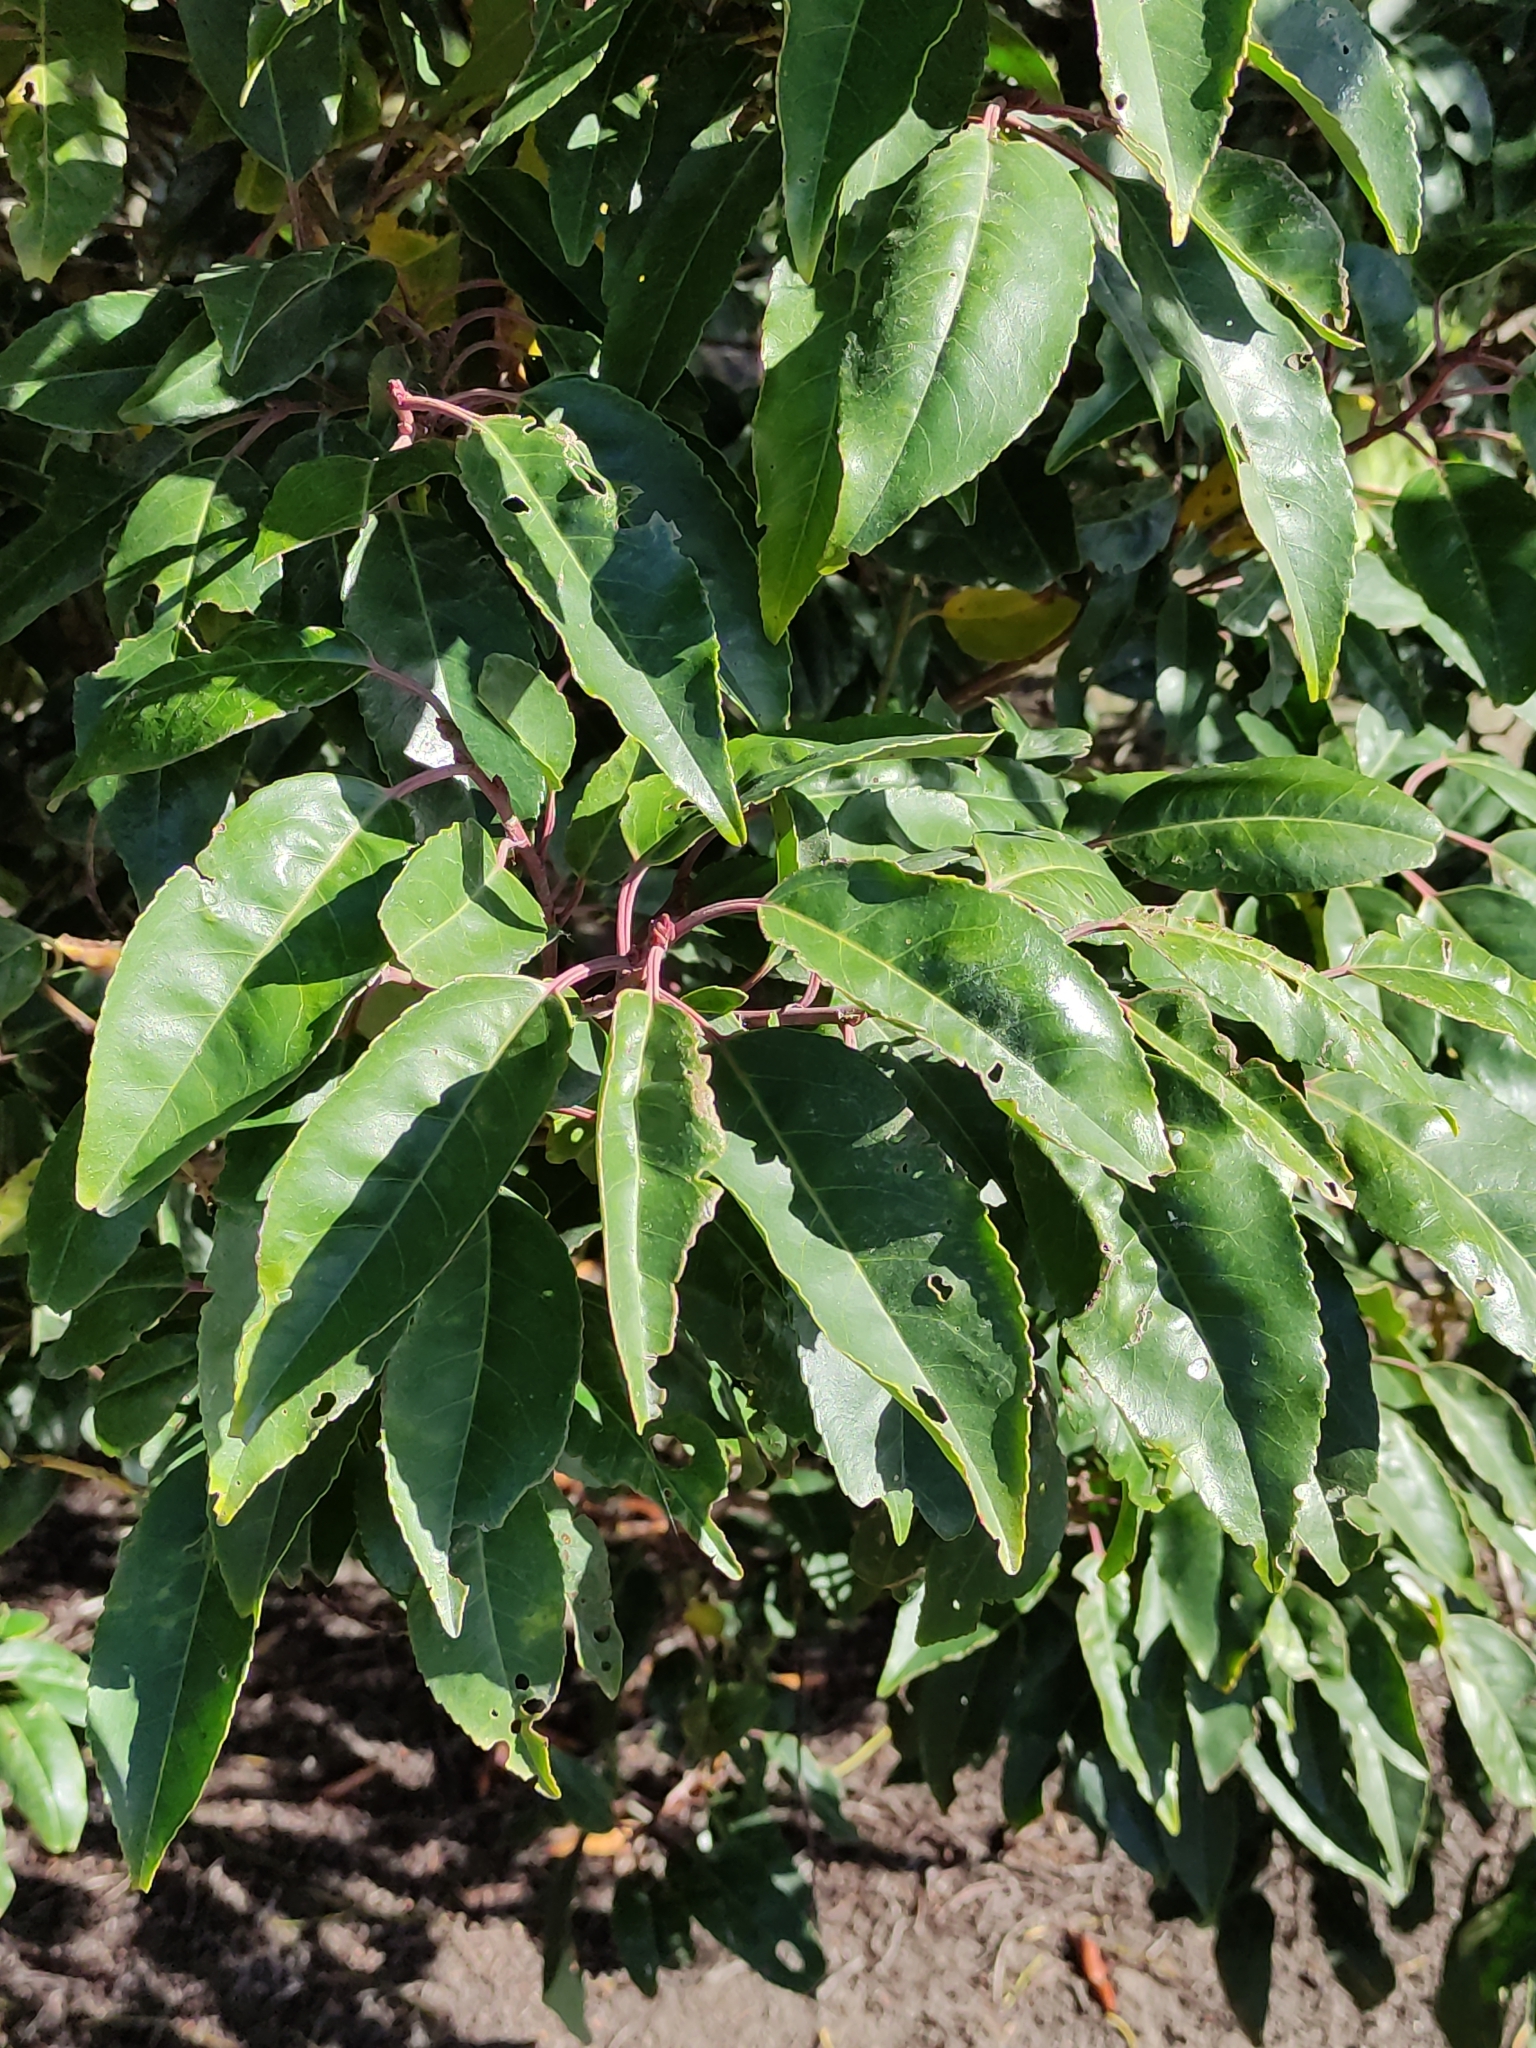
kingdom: Plantae
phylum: Tracheophyta
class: Magnoliopsida
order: Rosales
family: Rosaceae
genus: Prunus
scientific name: Prunus lusitanica
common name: Portugal laurel
